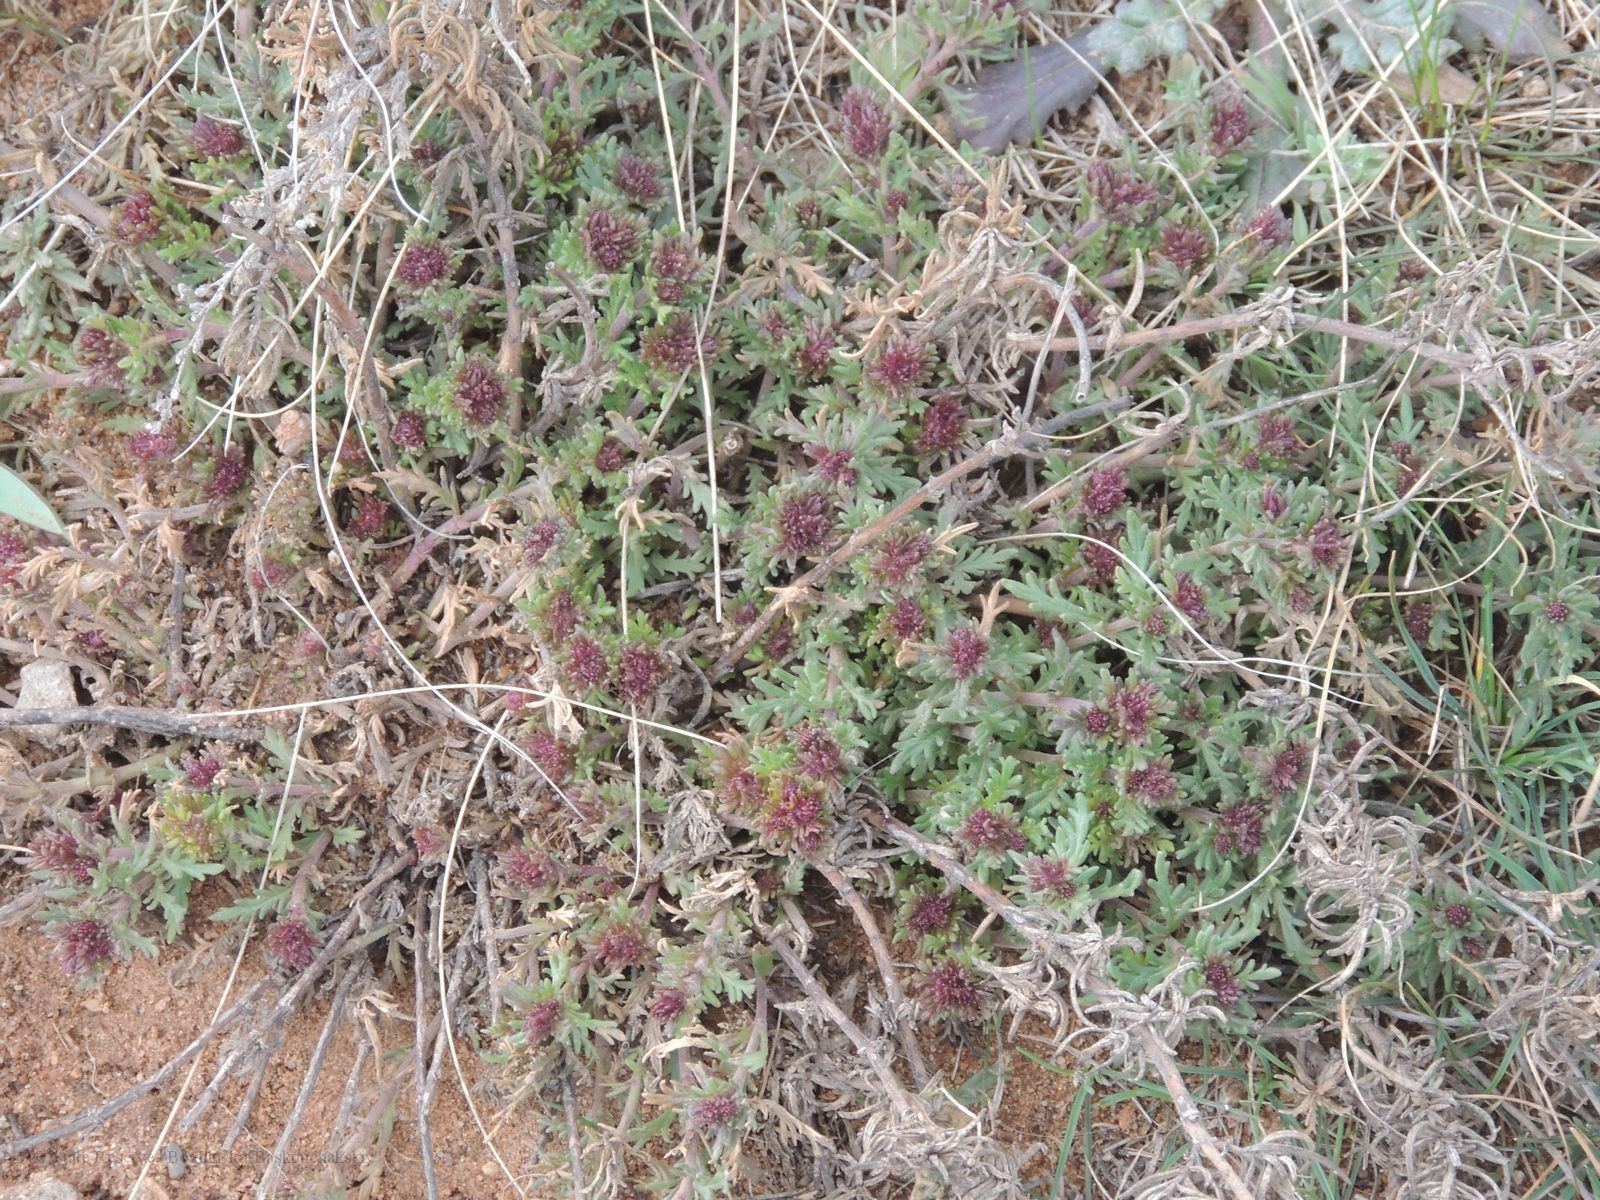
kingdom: Plantae
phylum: Tracheophyta
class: Magnoliopsida
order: Lamiales
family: Plantaginaceae
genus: Veronica
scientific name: Veronica multifida
